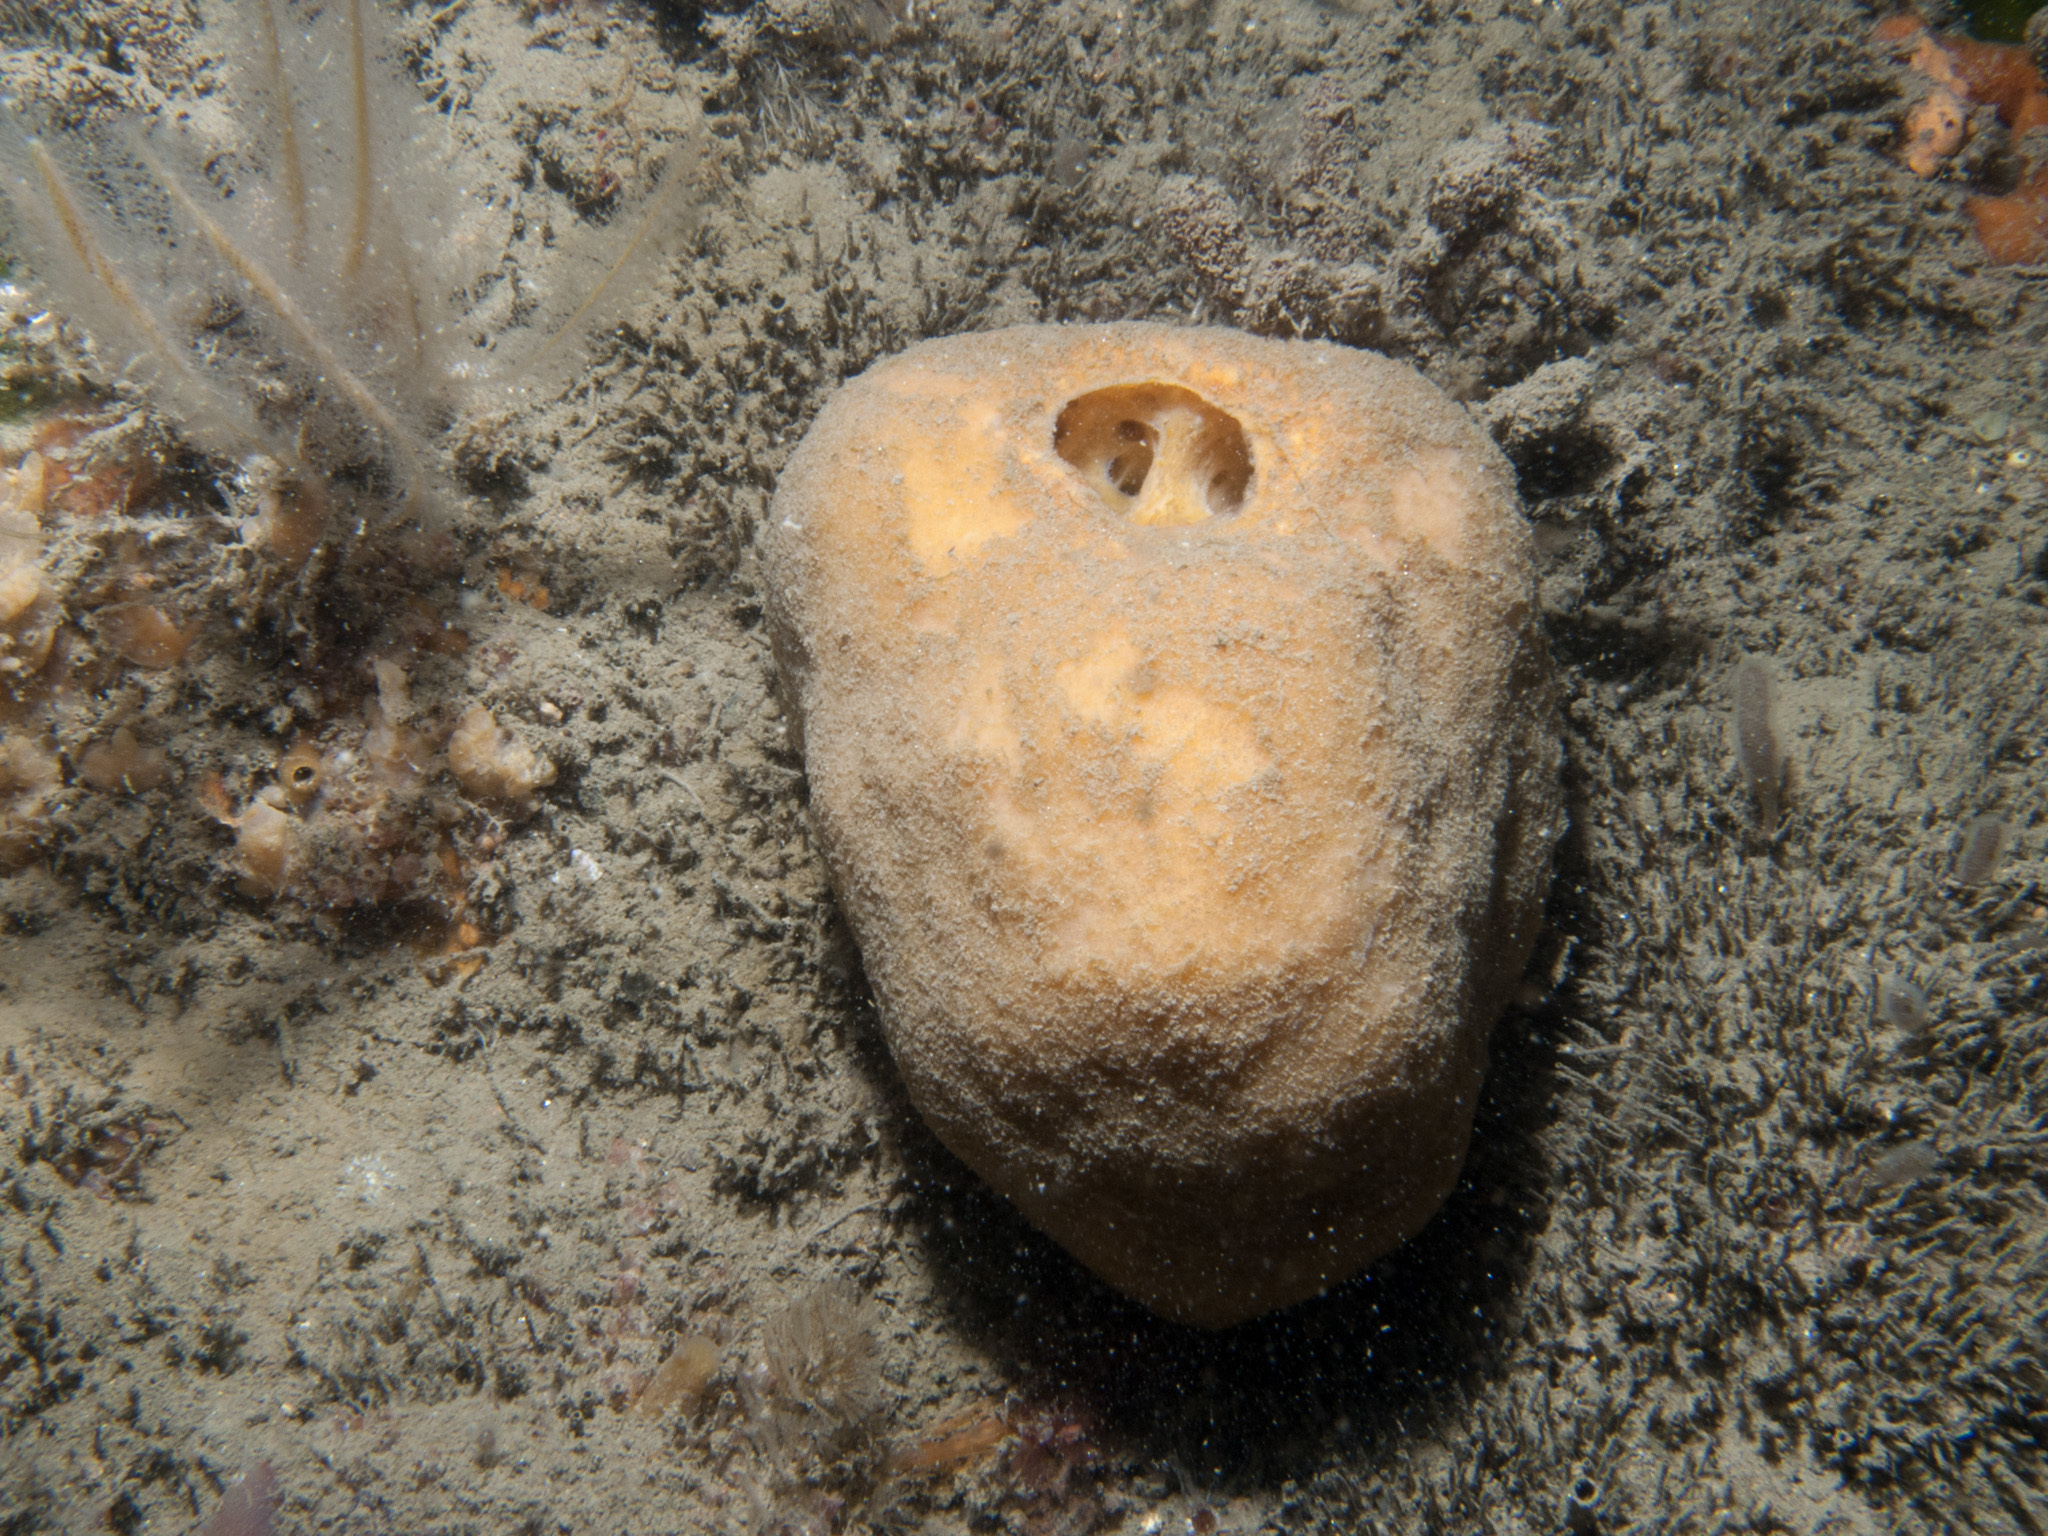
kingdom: Animalia
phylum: Porifera
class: Demospongiae
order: Suberitida
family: Suberitidae
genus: Suberites
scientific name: Suberites carnosus
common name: Fleshy horny sponge
